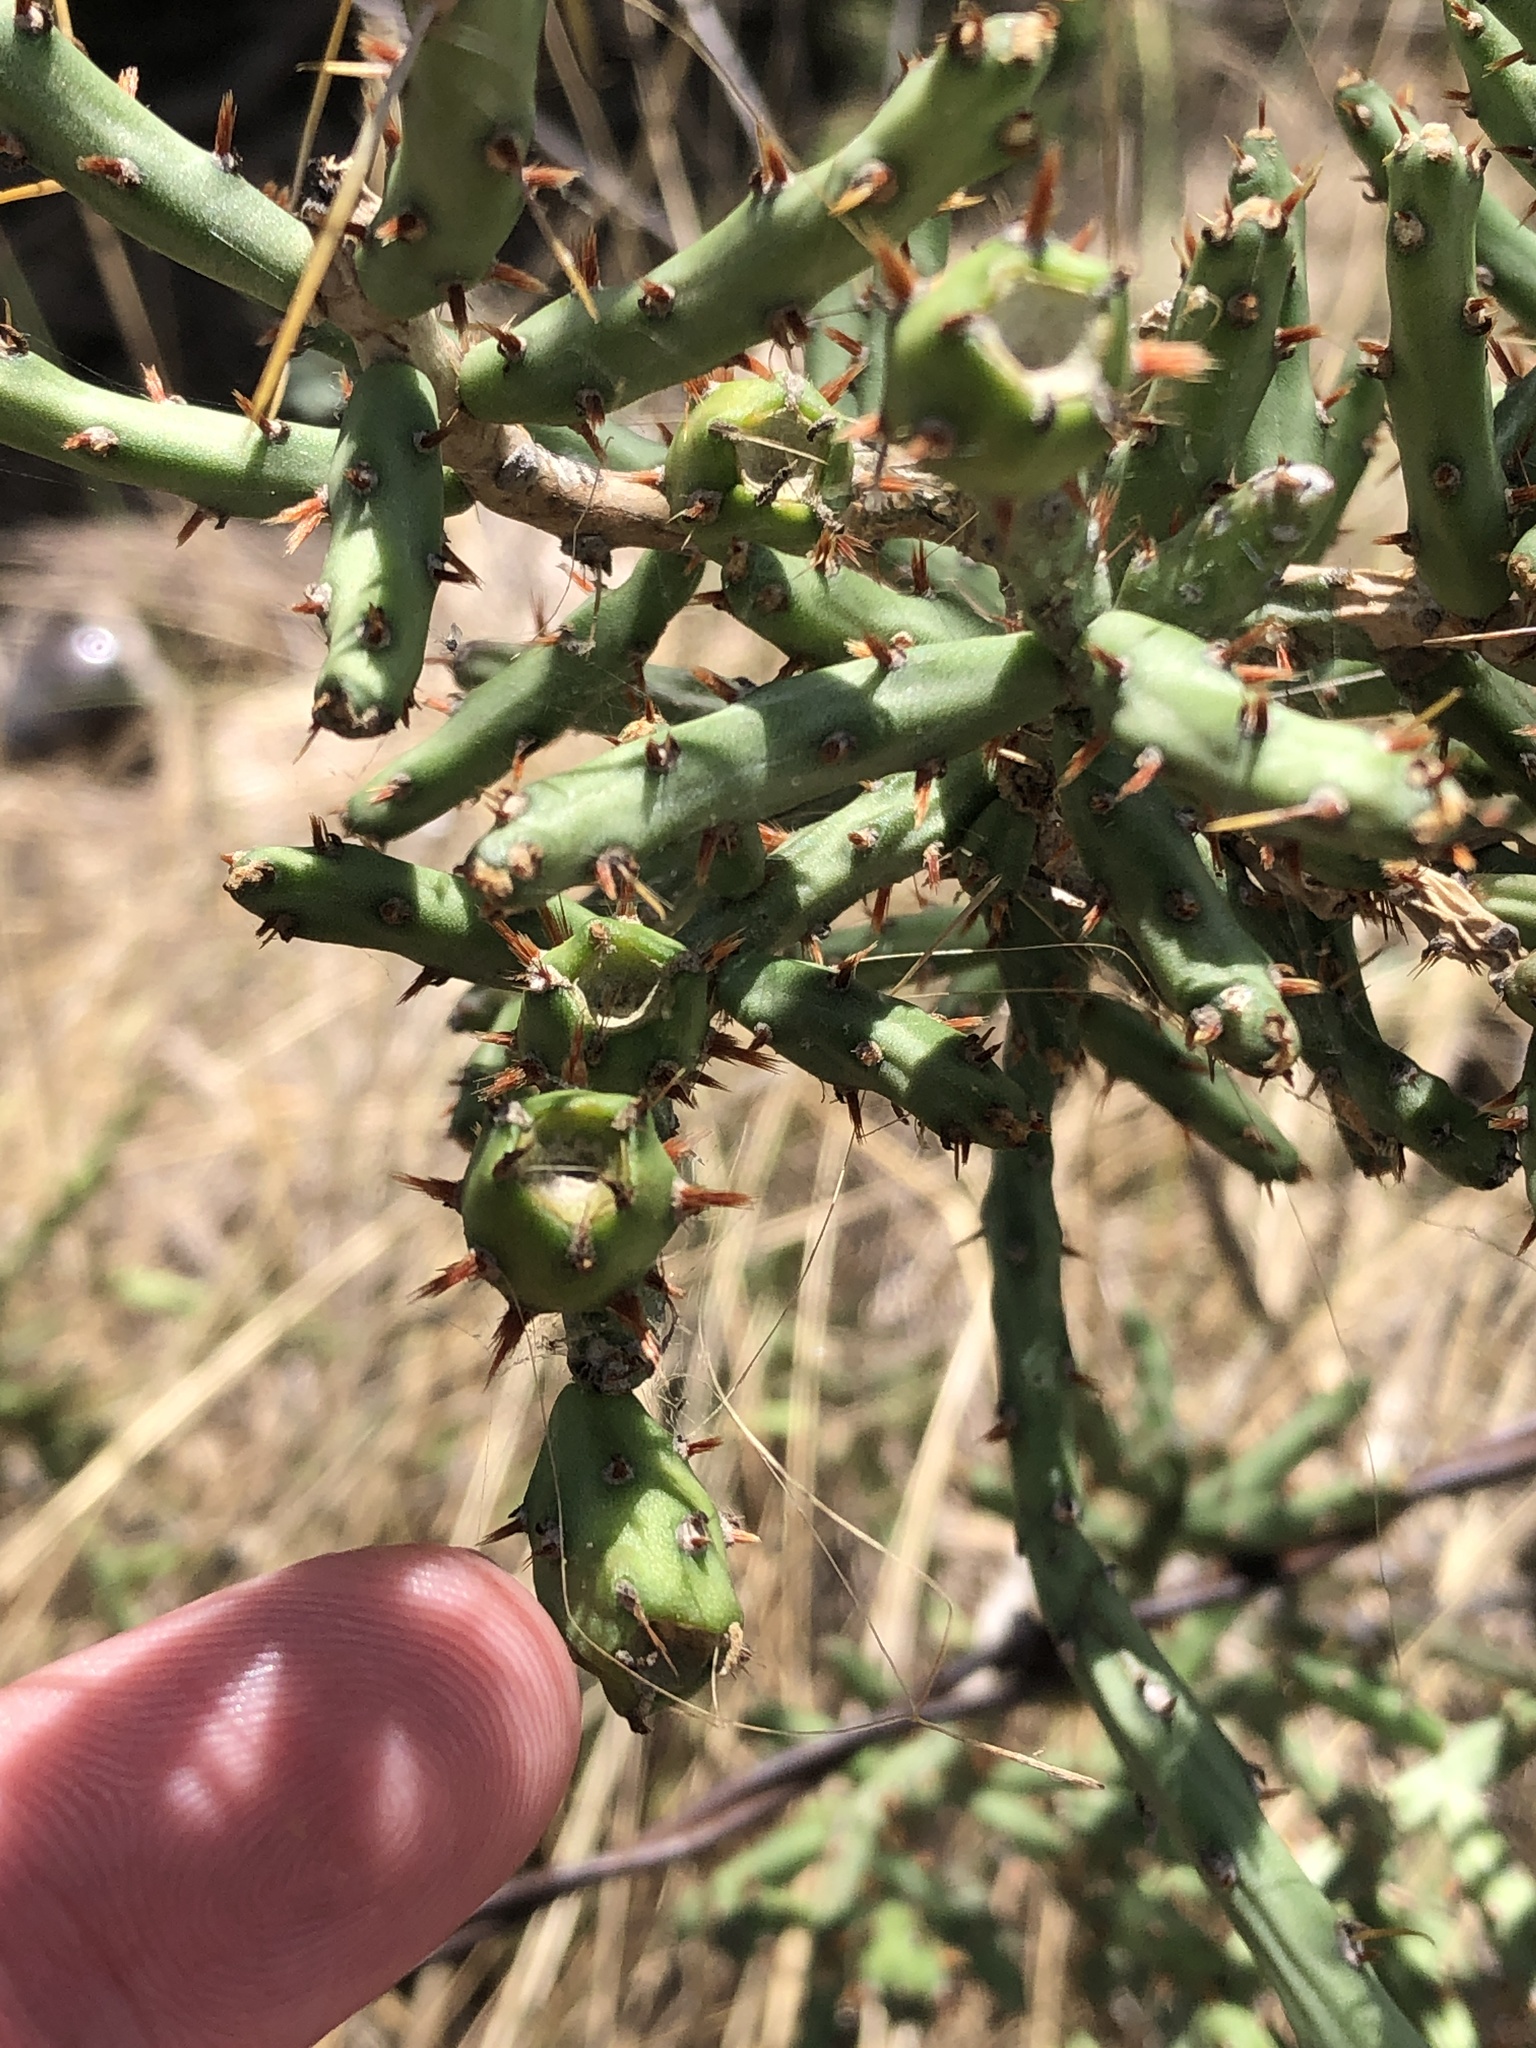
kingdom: Plantae
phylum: Tracheophyta
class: Magnoliopsida
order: Caryophyllales
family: Cactaceae
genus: Cylindropuntia
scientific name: Cylindropuntia leptocaulis
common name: Christmas cactus
